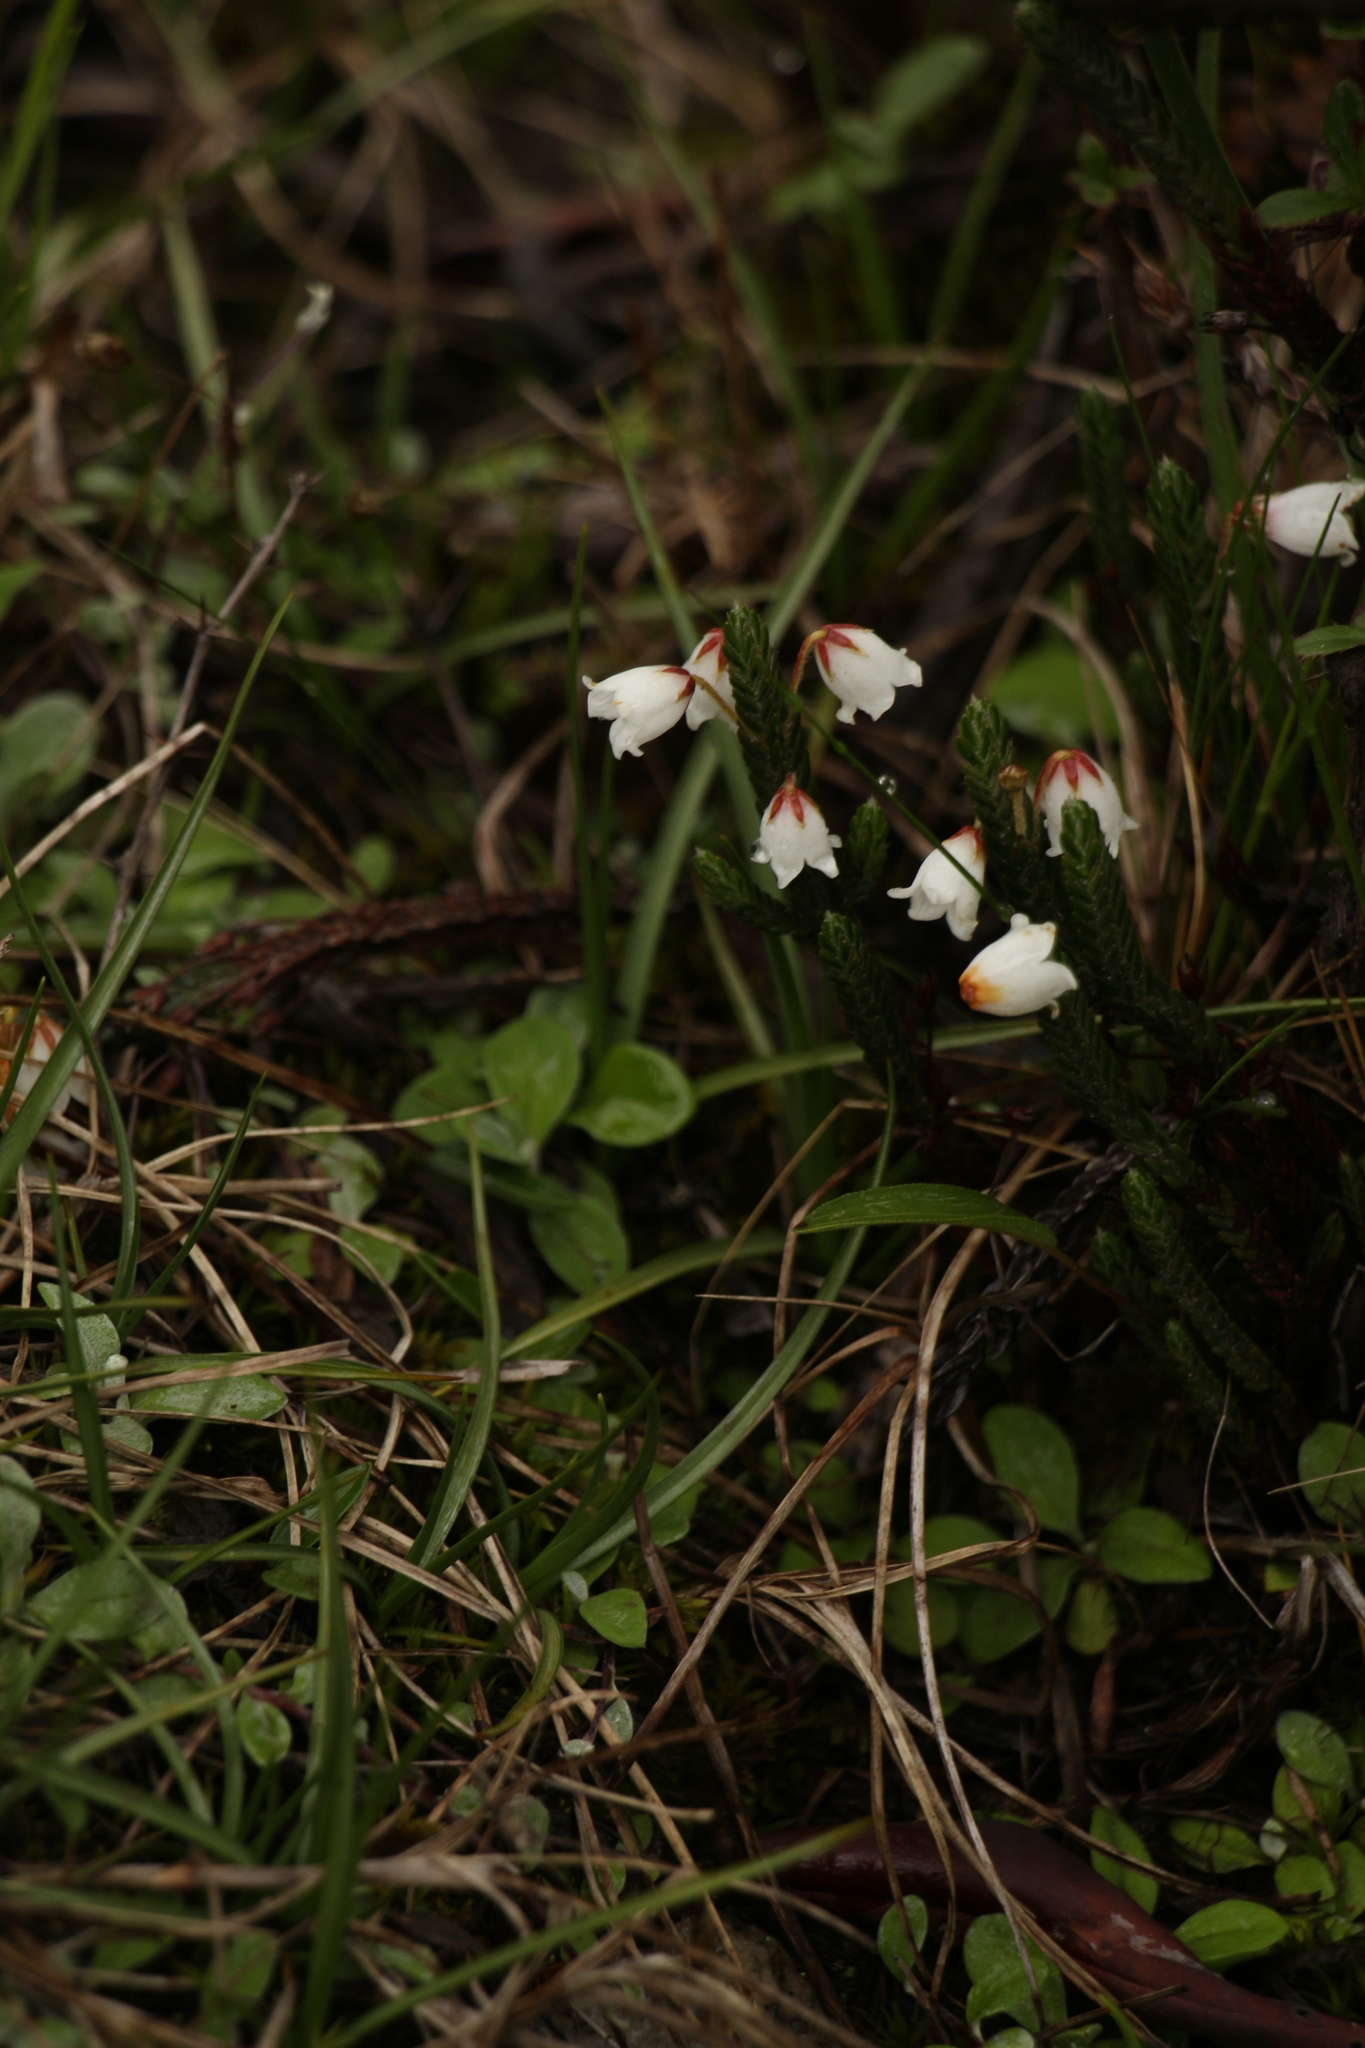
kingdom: Plantae
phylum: Tracheophyta
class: Magnoliopsida
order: Ericales
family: Ericaceae
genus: Cassiope
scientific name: Cassiope fastigiata
